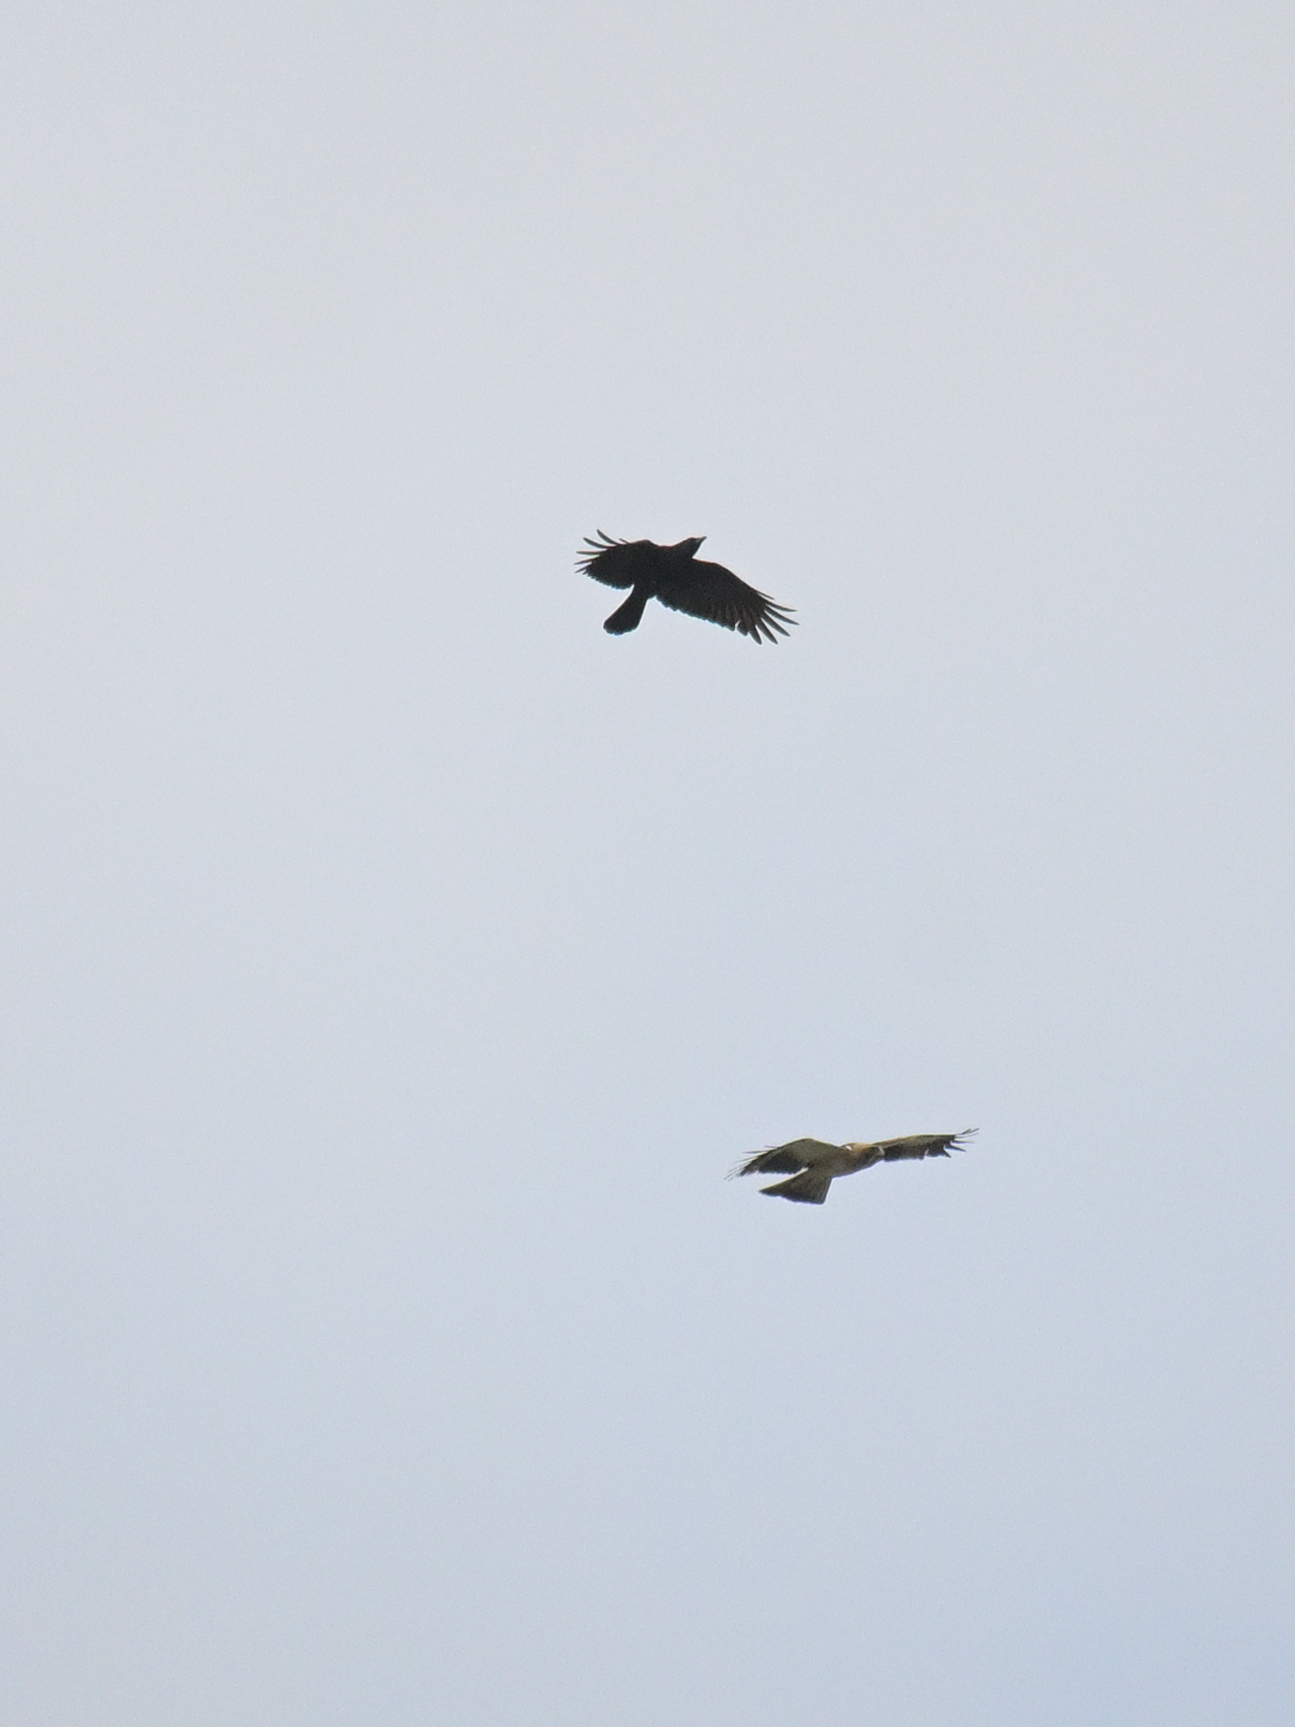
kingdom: Animalia
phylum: Chordata
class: Aves
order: Accipitriformes
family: Accipitridae
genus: Hieraaetus
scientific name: Hieraaetus pennatus
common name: Booted eagle
